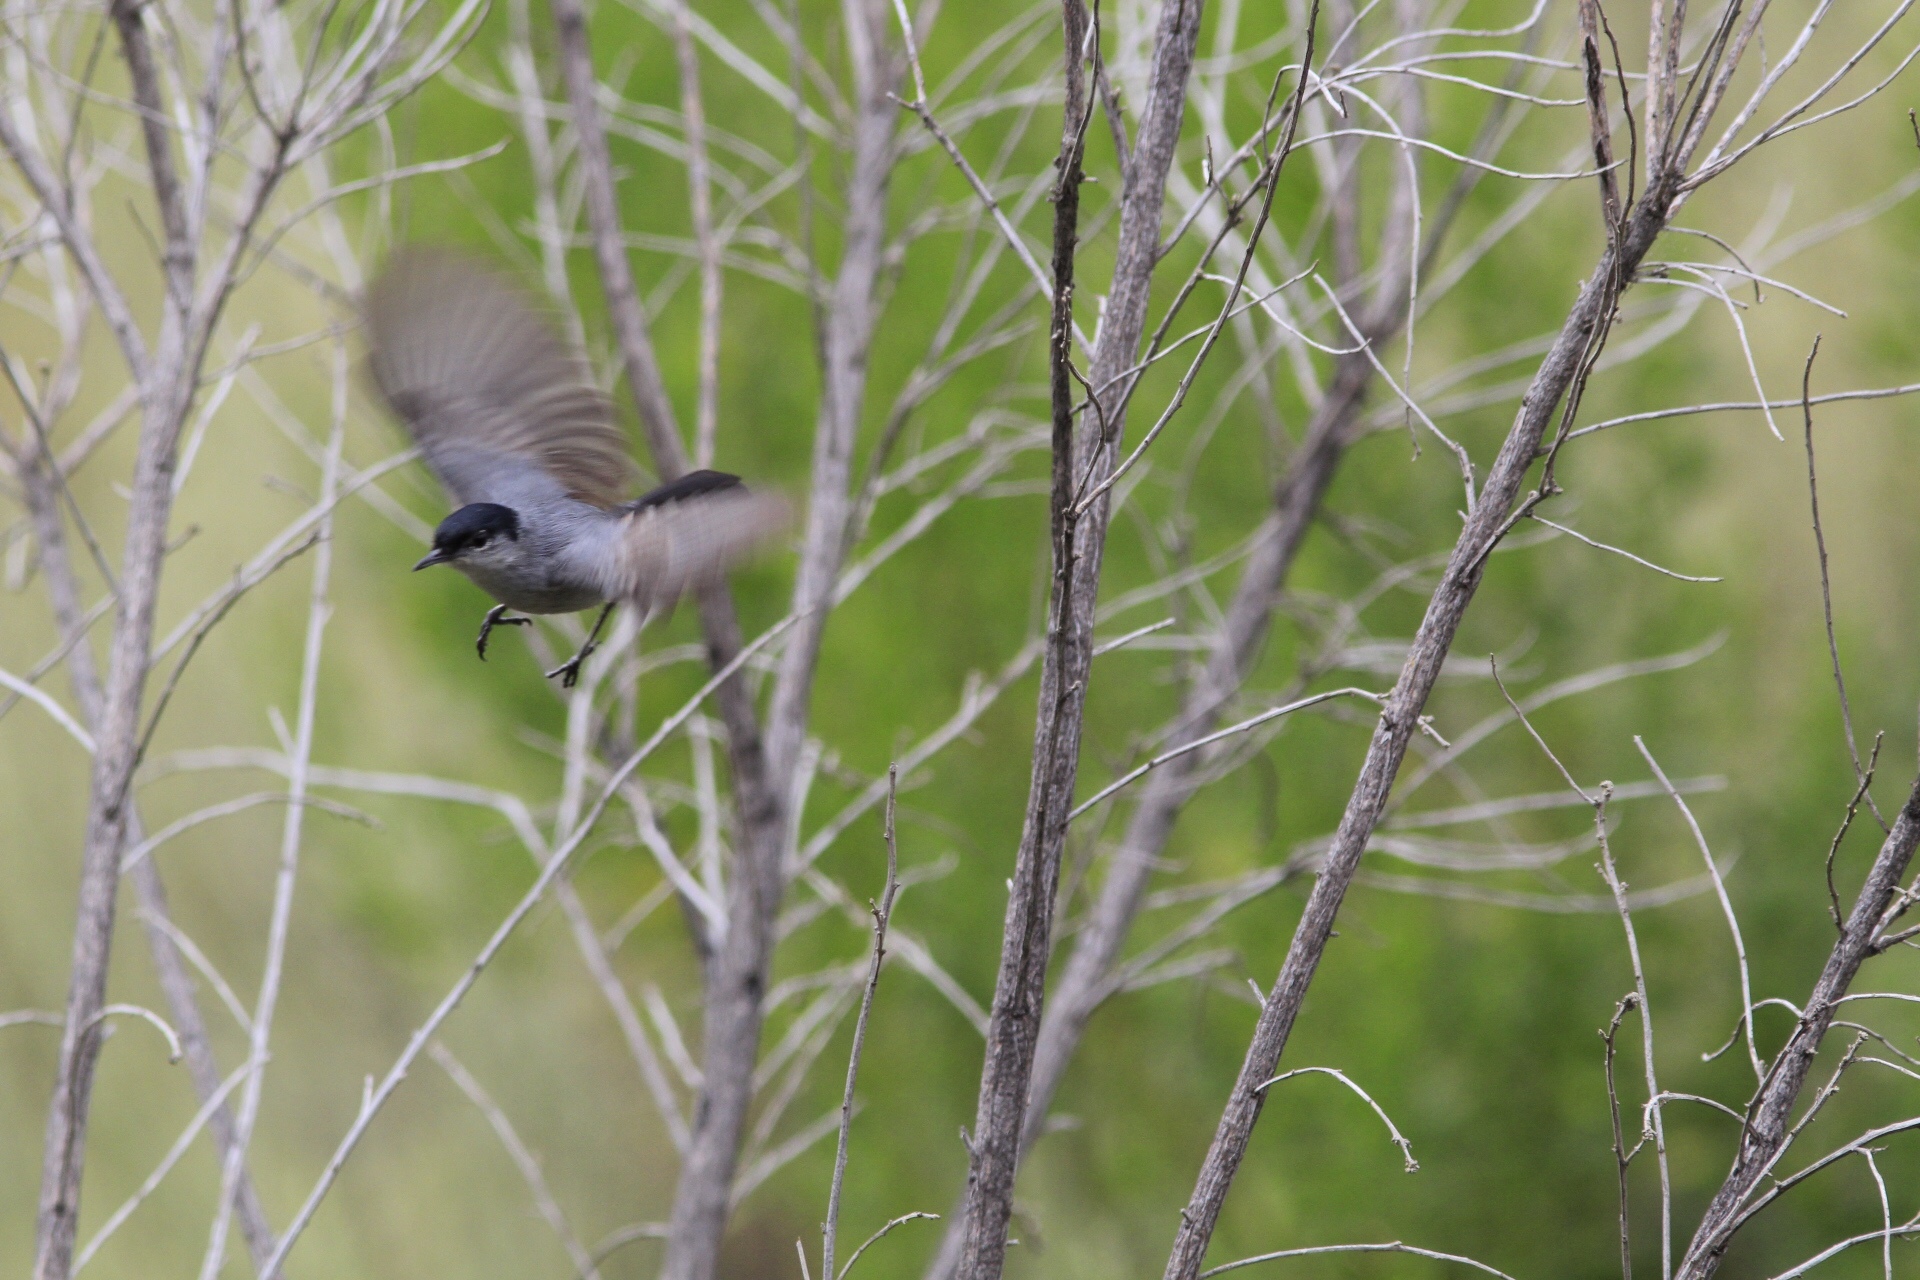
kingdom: Animalia
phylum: Chordata
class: Aves
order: Passeriformes
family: Polioptilidae
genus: Polioptila
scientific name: Polioptila californica
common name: California gnatcatcher
